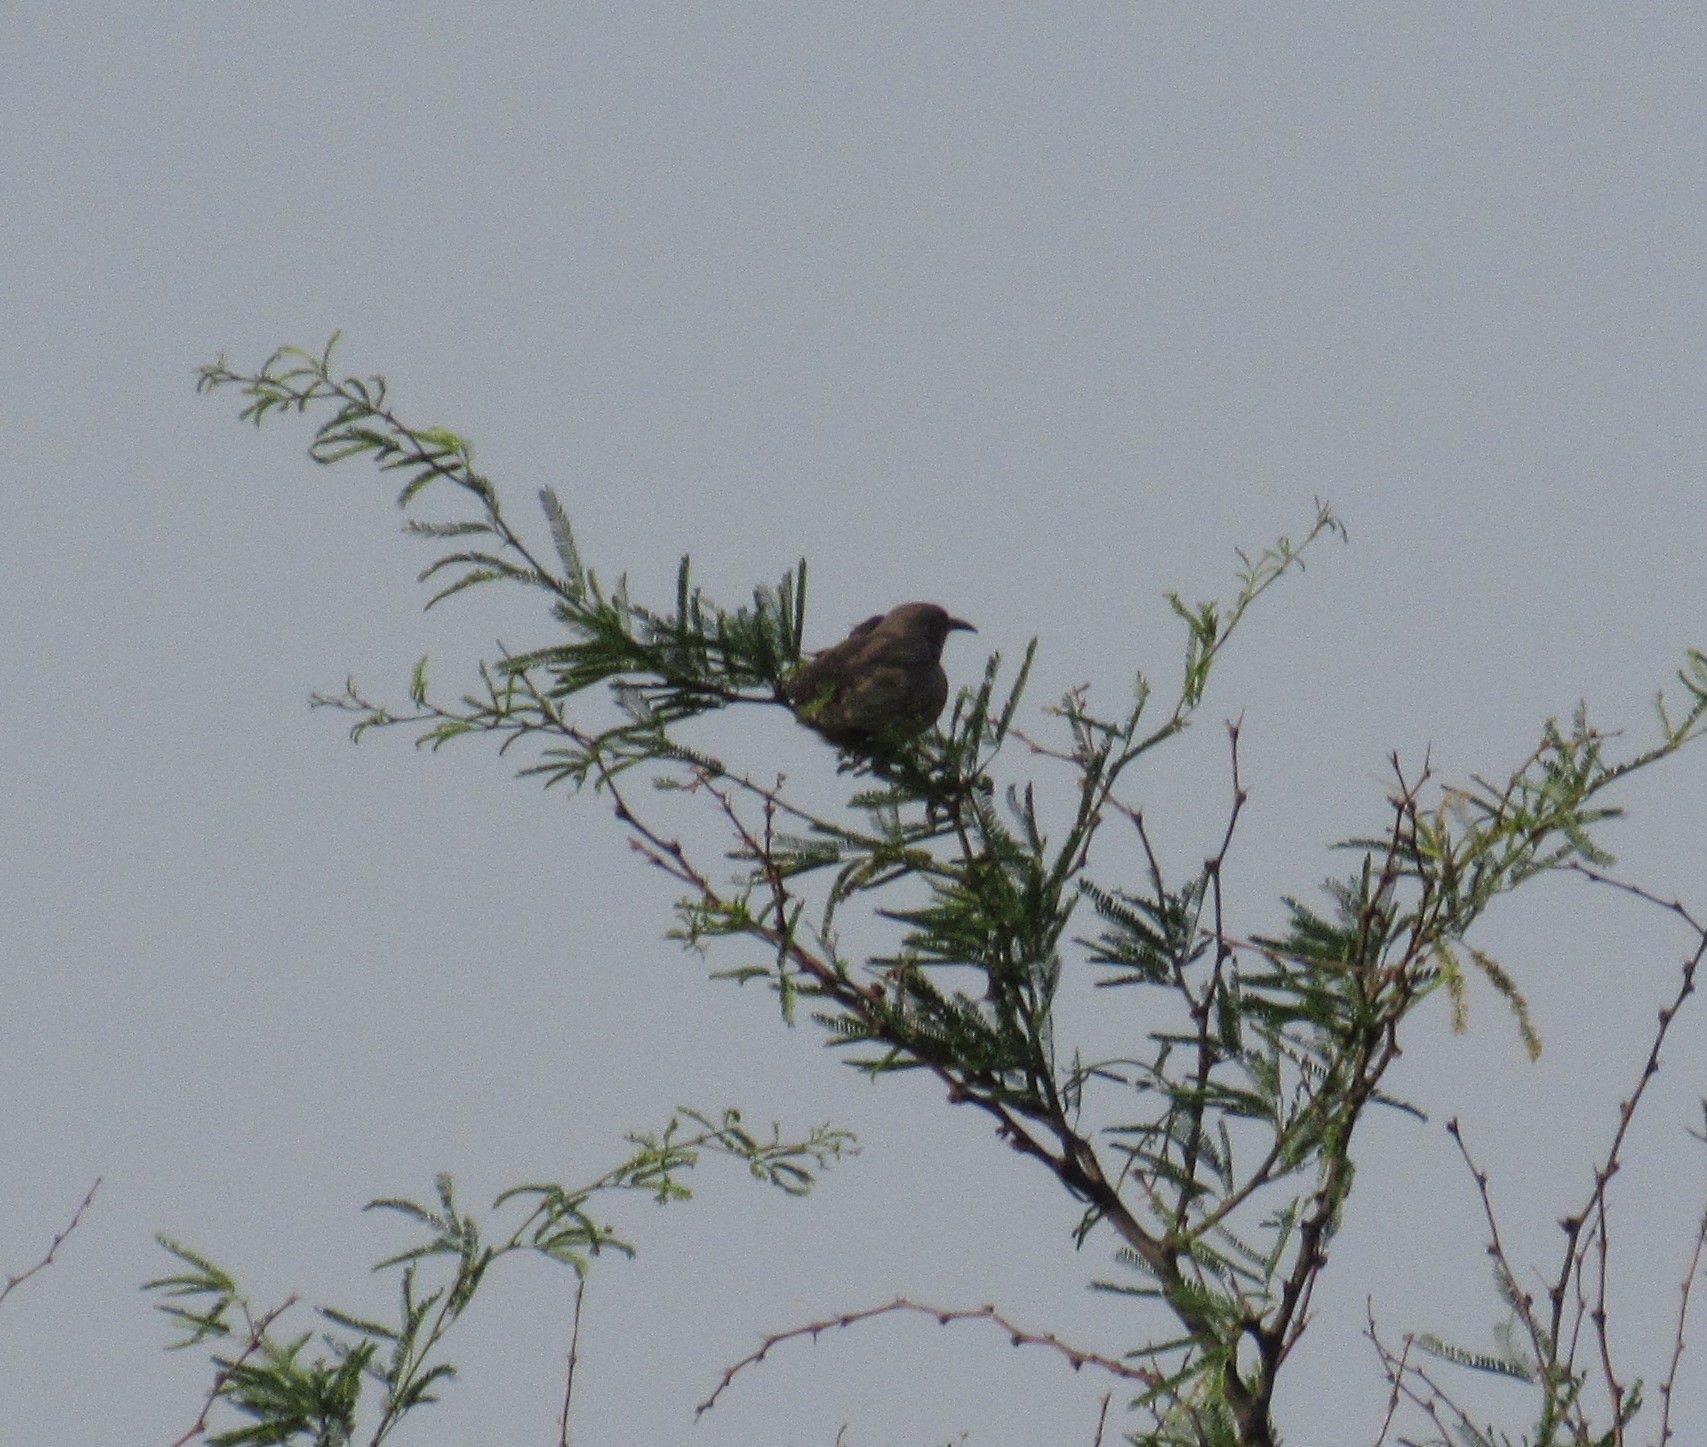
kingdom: Animalia
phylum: Chordata
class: Aves
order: Passeriformes
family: Mimidae
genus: Toxostoma
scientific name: Toxostoma curvirostre
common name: Curve-billed thrasher
